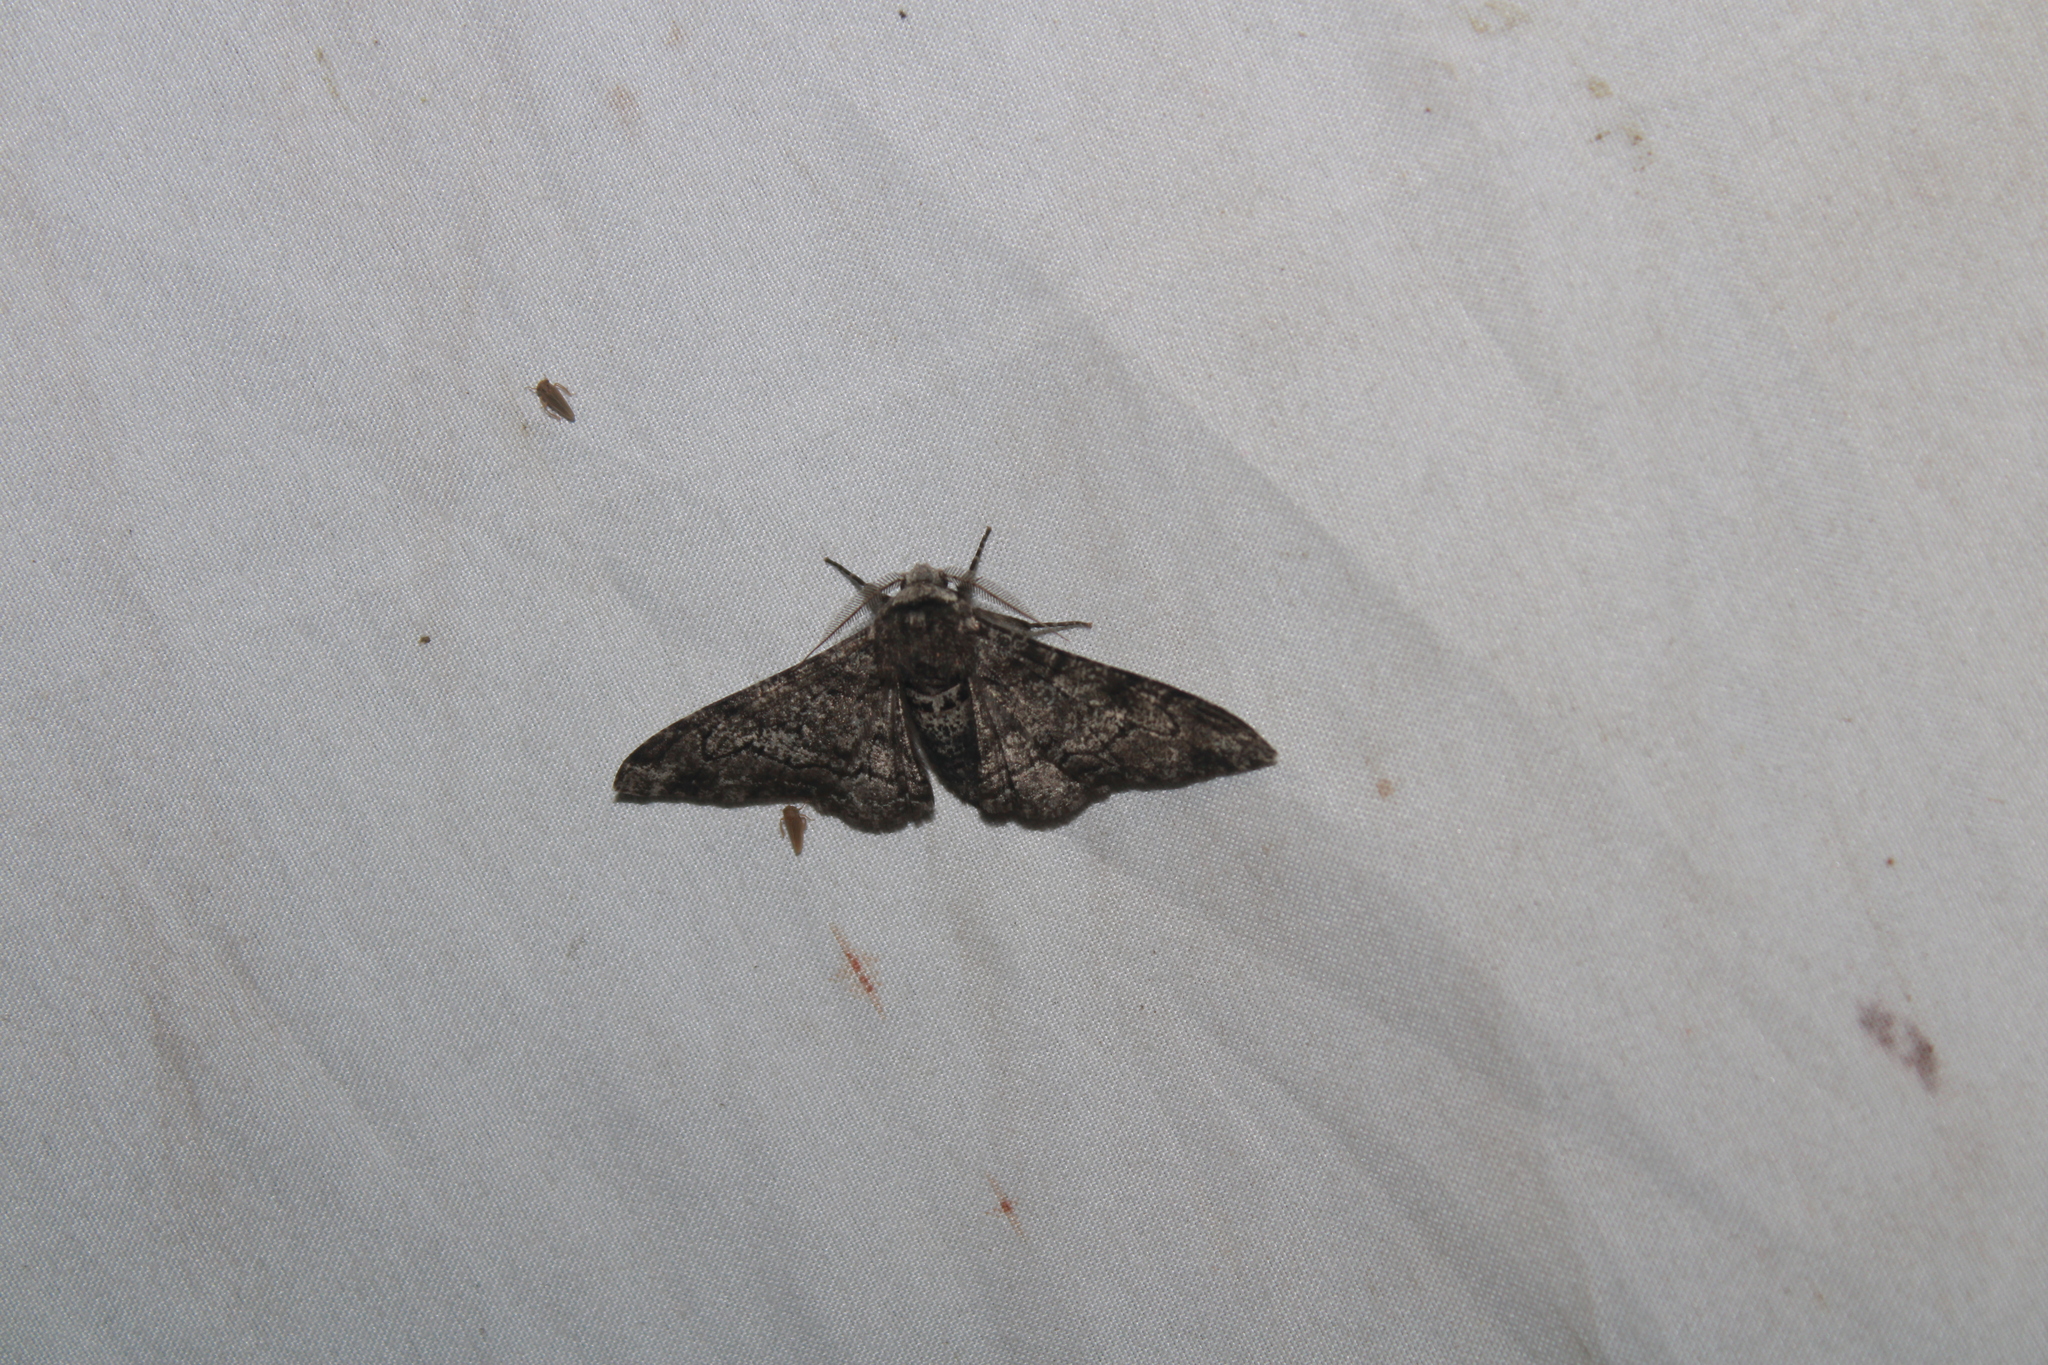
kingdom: Animalia
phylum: Arthropoda
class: Insecta
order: Lepidoptera
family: Geometridae
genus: Biston
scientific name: Biston betularia
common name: Peppered moth
